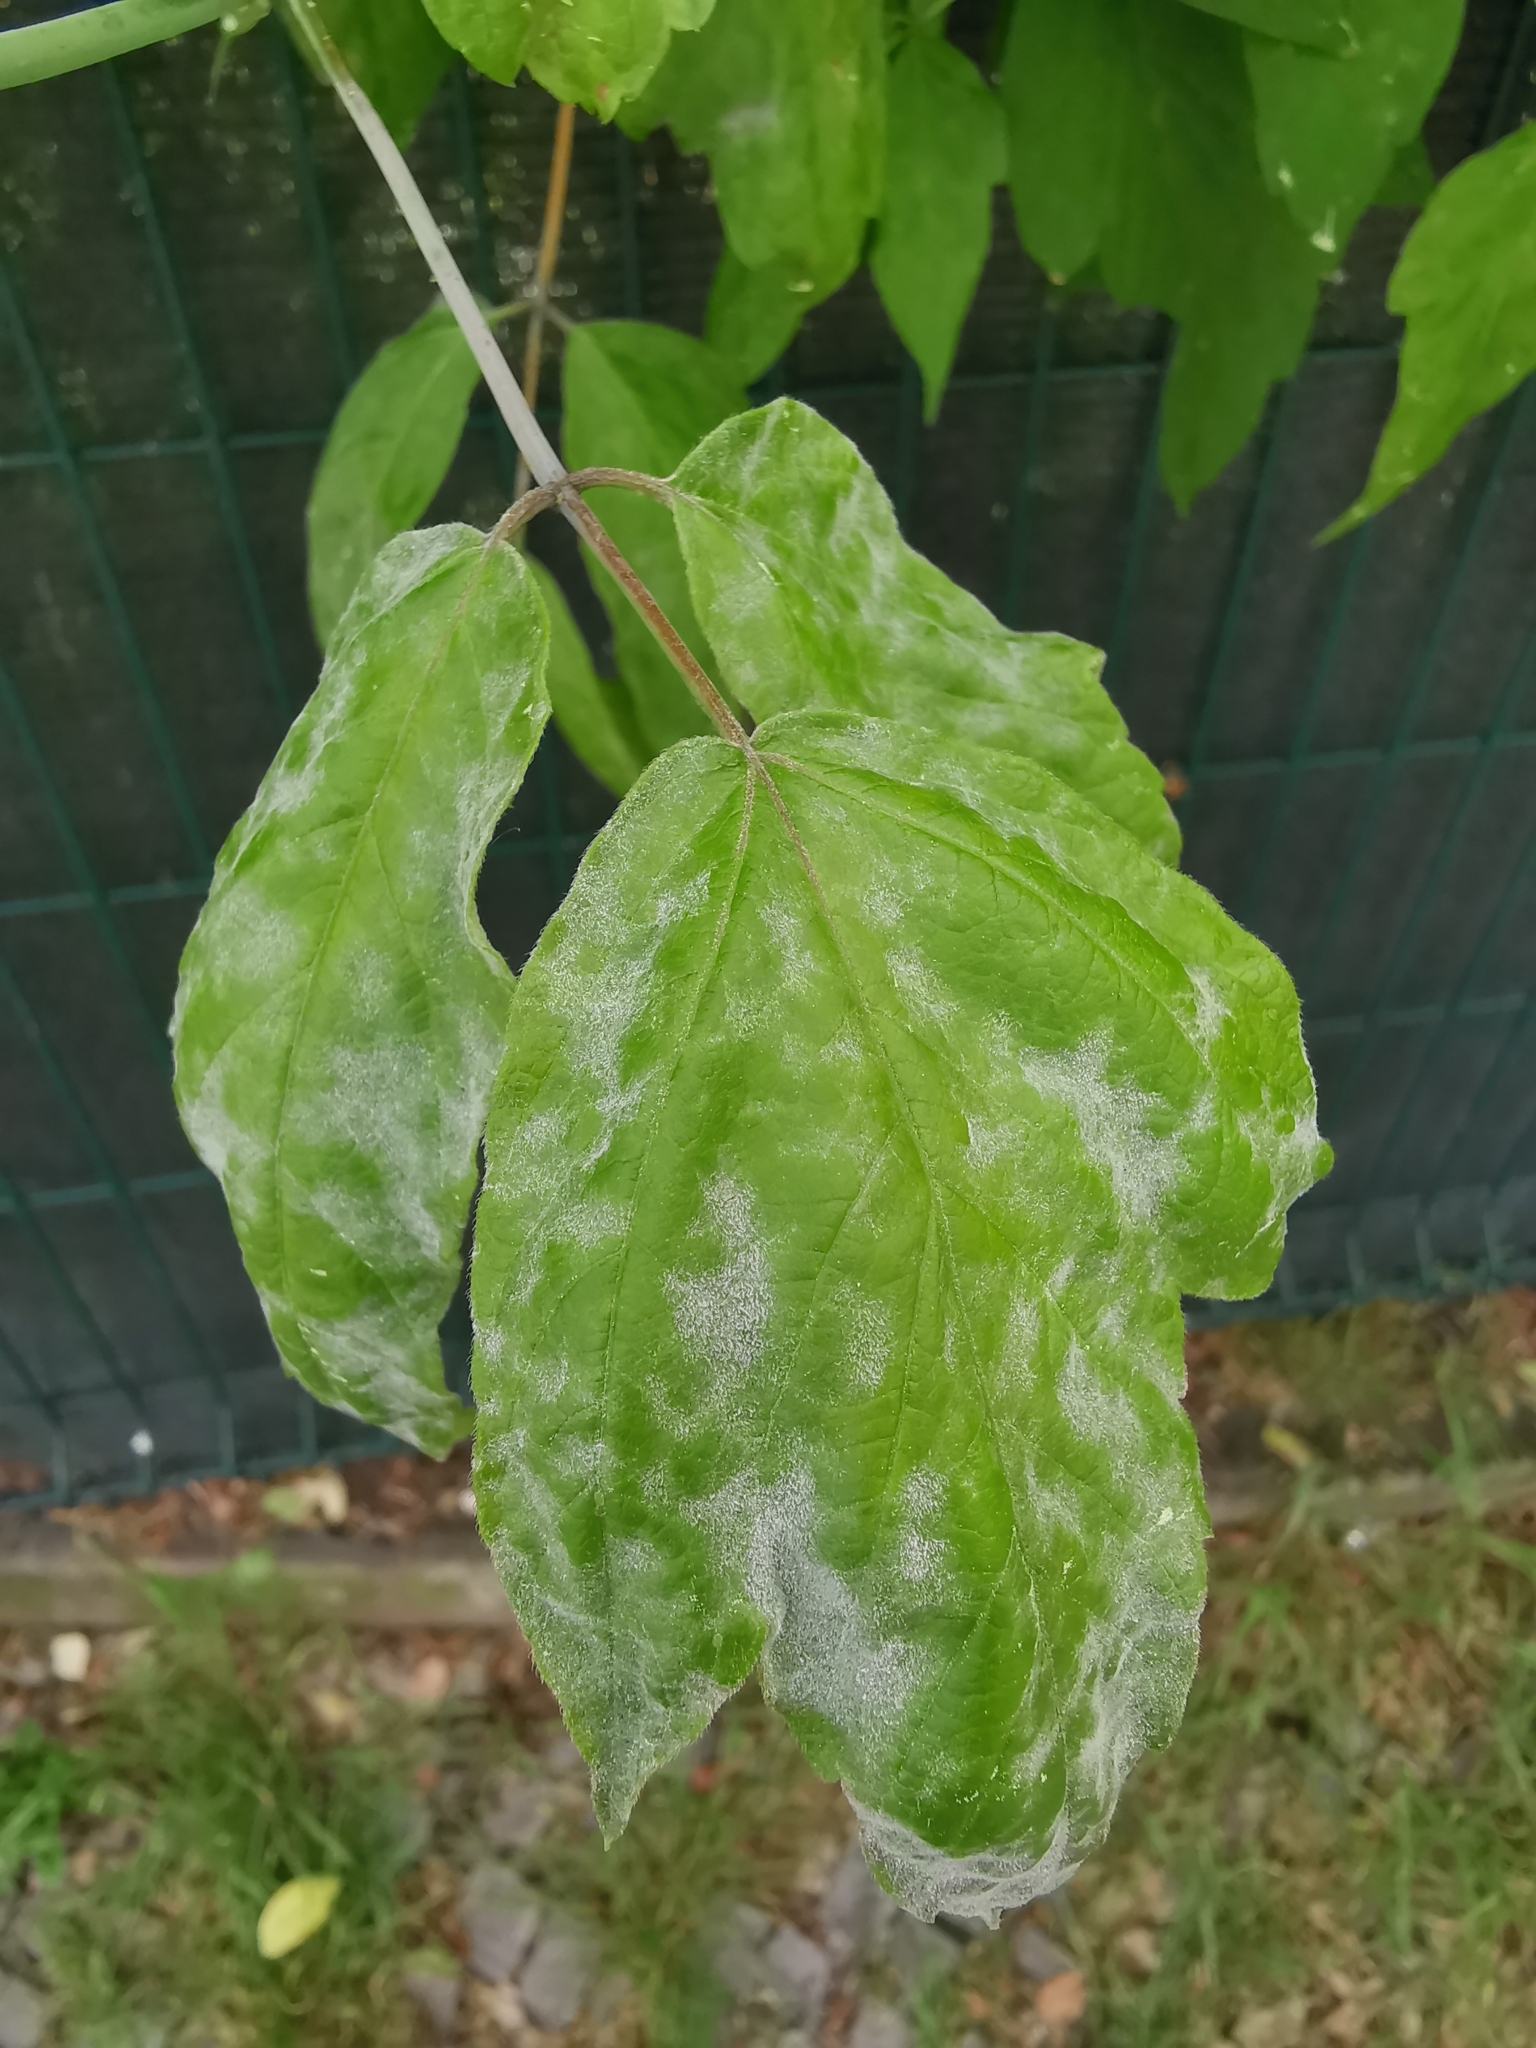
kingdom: Fungi
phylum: Ascomycota
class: Leotiomycetes
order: Helotiales
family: Erysiphaceae
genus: Sawadaea
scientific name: Sawadaea bicornis
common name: Maple mildew
